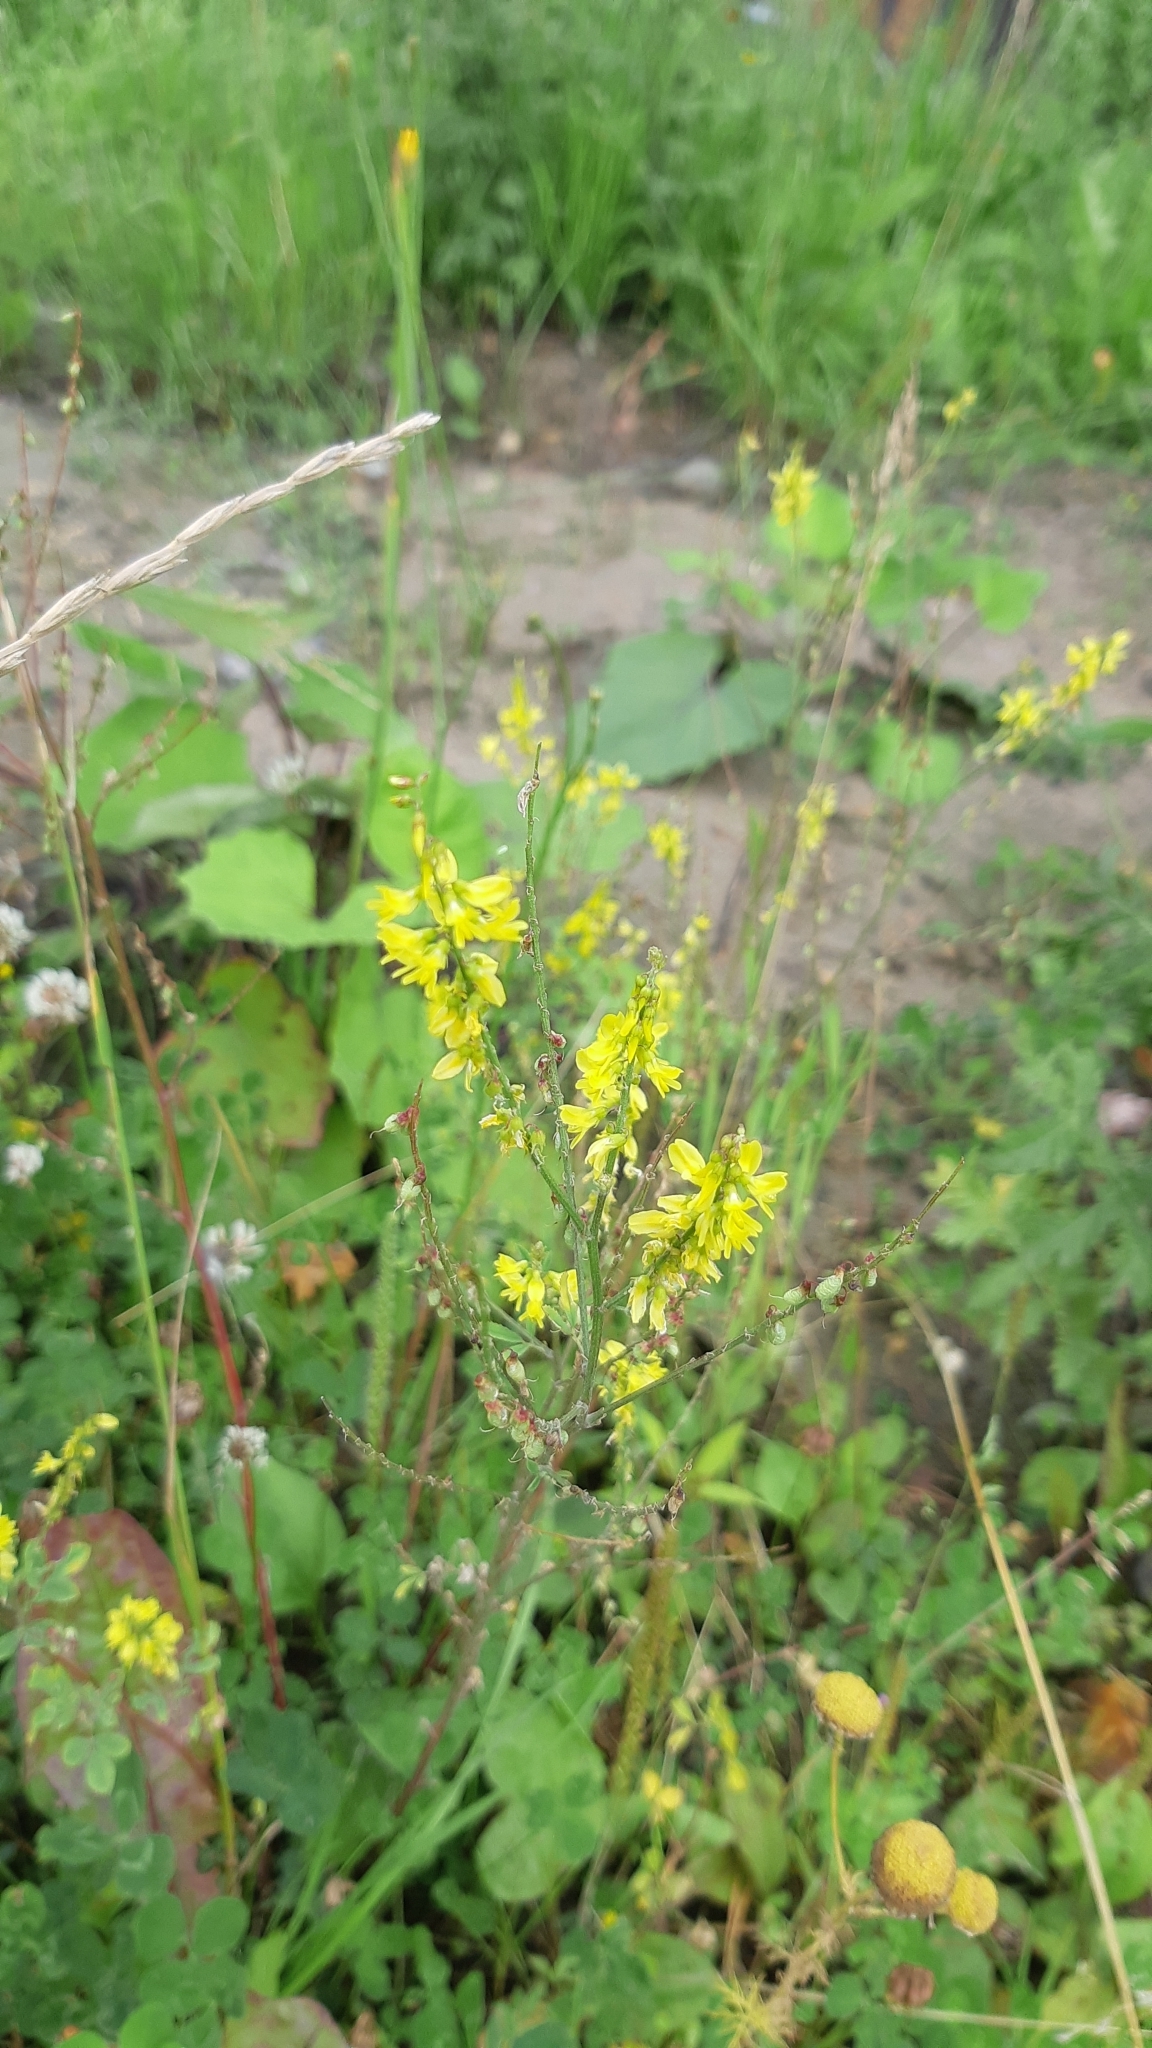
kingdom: Plantae
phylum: Tracheophyta
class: Magnoliopsida
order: Fabales
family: Fabaceae
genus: Melilotus
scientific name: Melilotus officinalis
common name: Sweetclover
